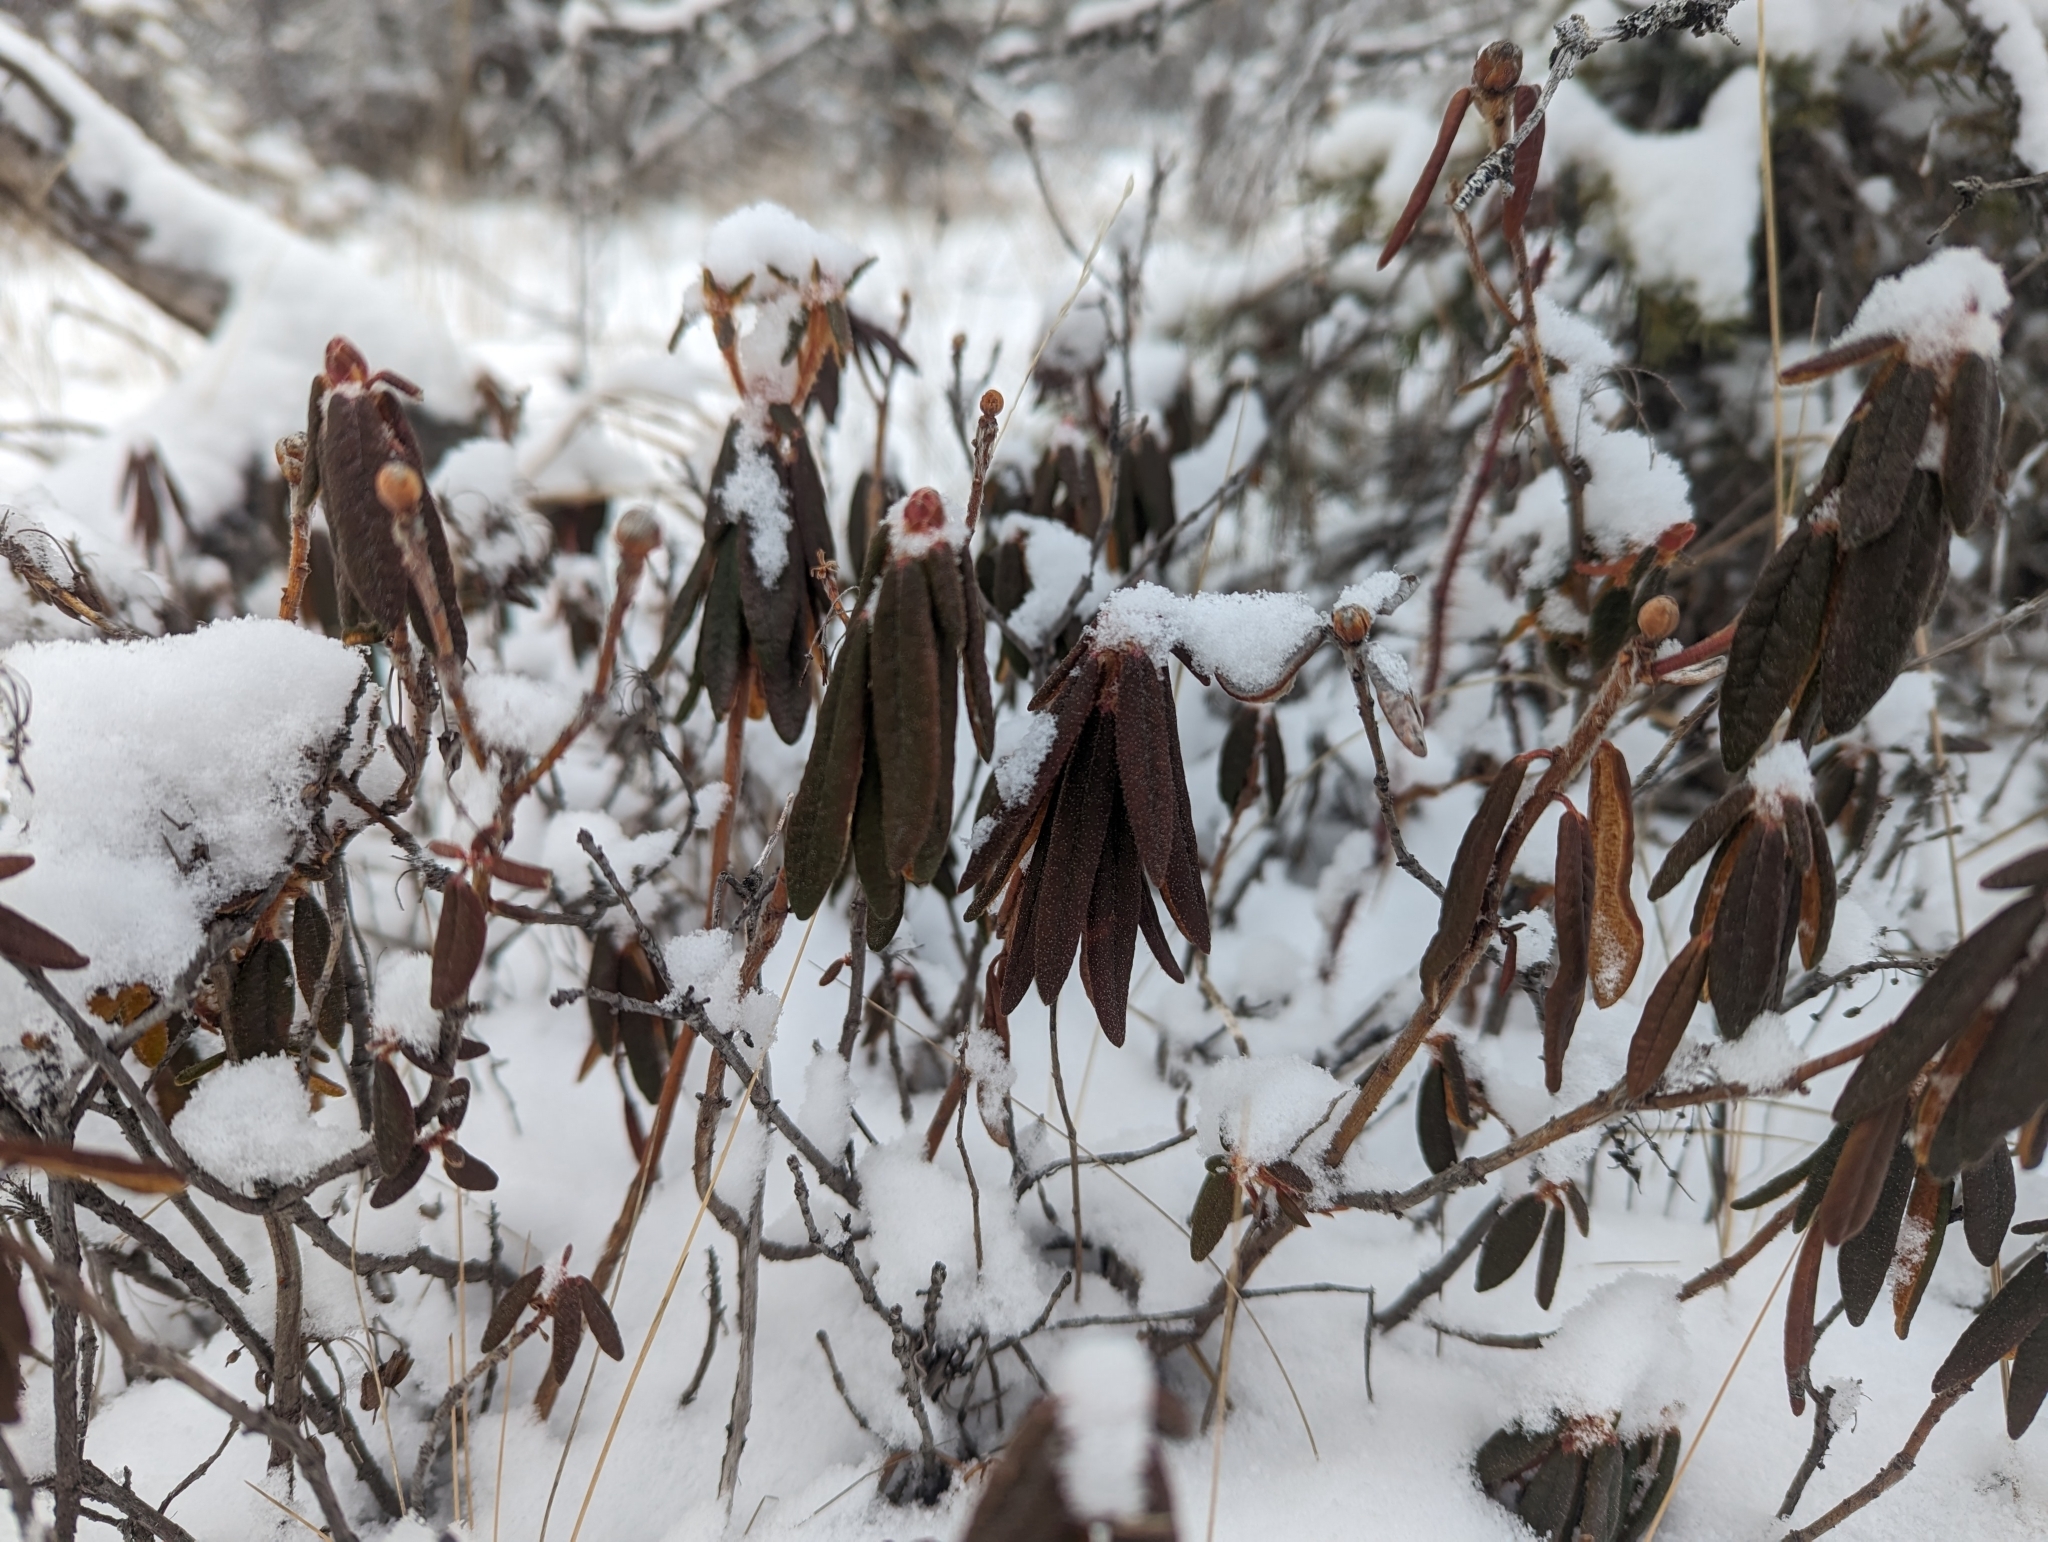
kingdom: Plantae
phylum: Tracheophyta
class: Magnoliopsida
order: Ericales
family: Ericaceae
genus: Rhododendron
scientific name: Rhododendron groenlandicum
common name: Bog labrador tea
